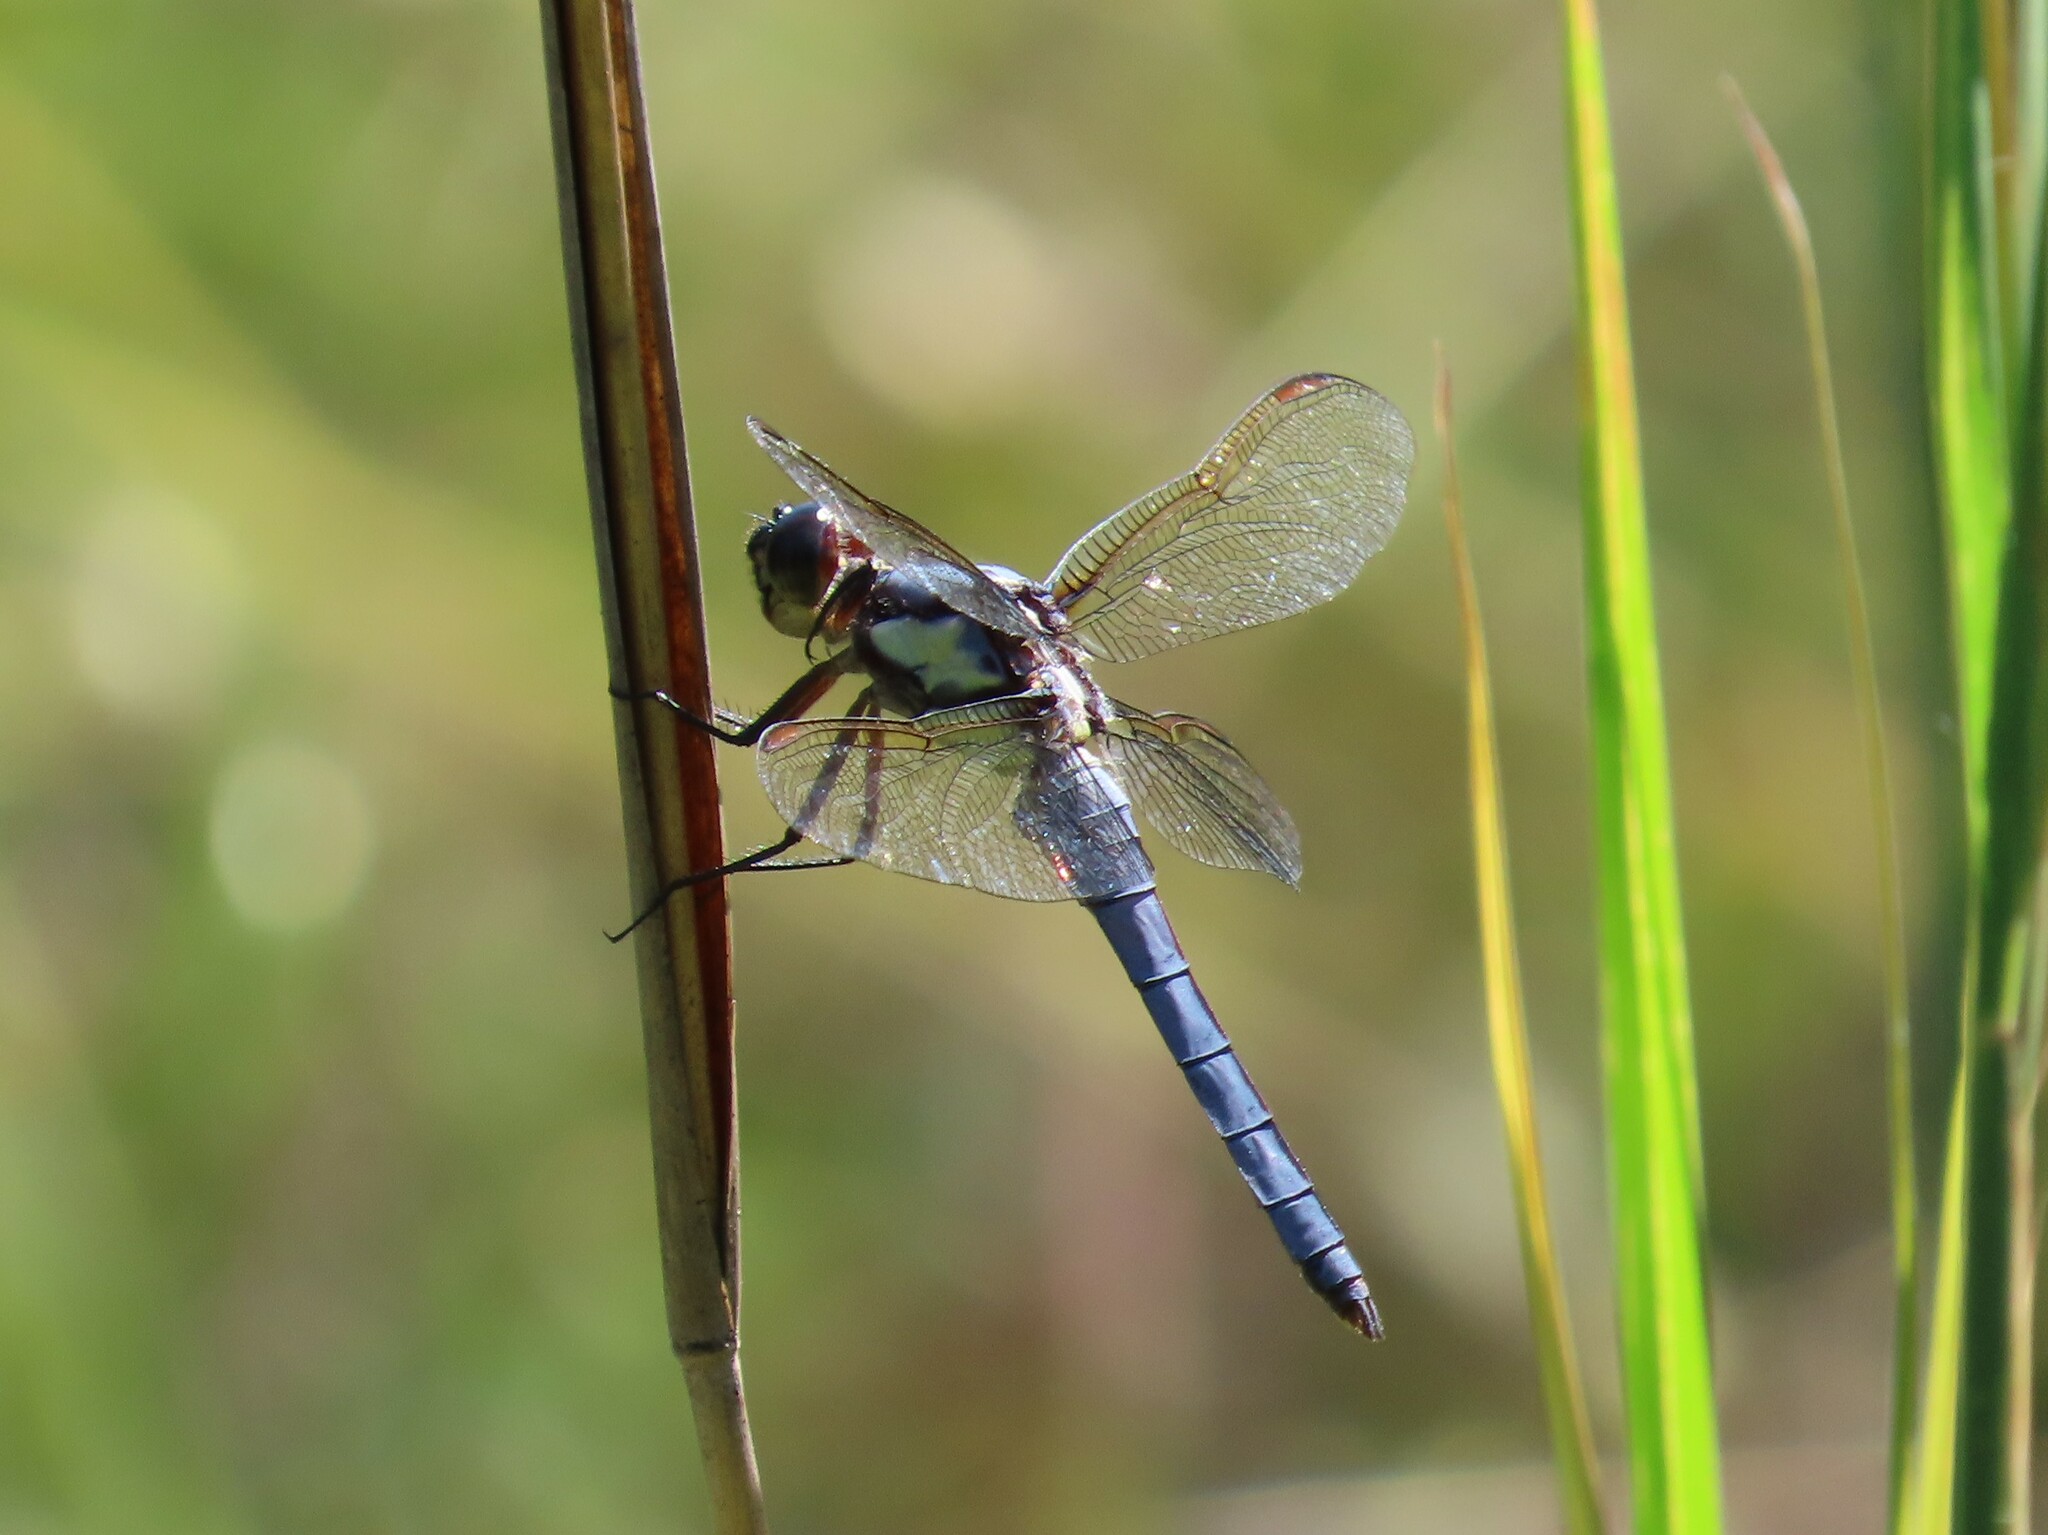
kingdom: Animalia
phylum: Arthropoda
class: Insecta
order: Odonata
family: Libellulidae
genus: Libellula
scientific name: Libellula flavida
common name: Yellow-sided skimmer
